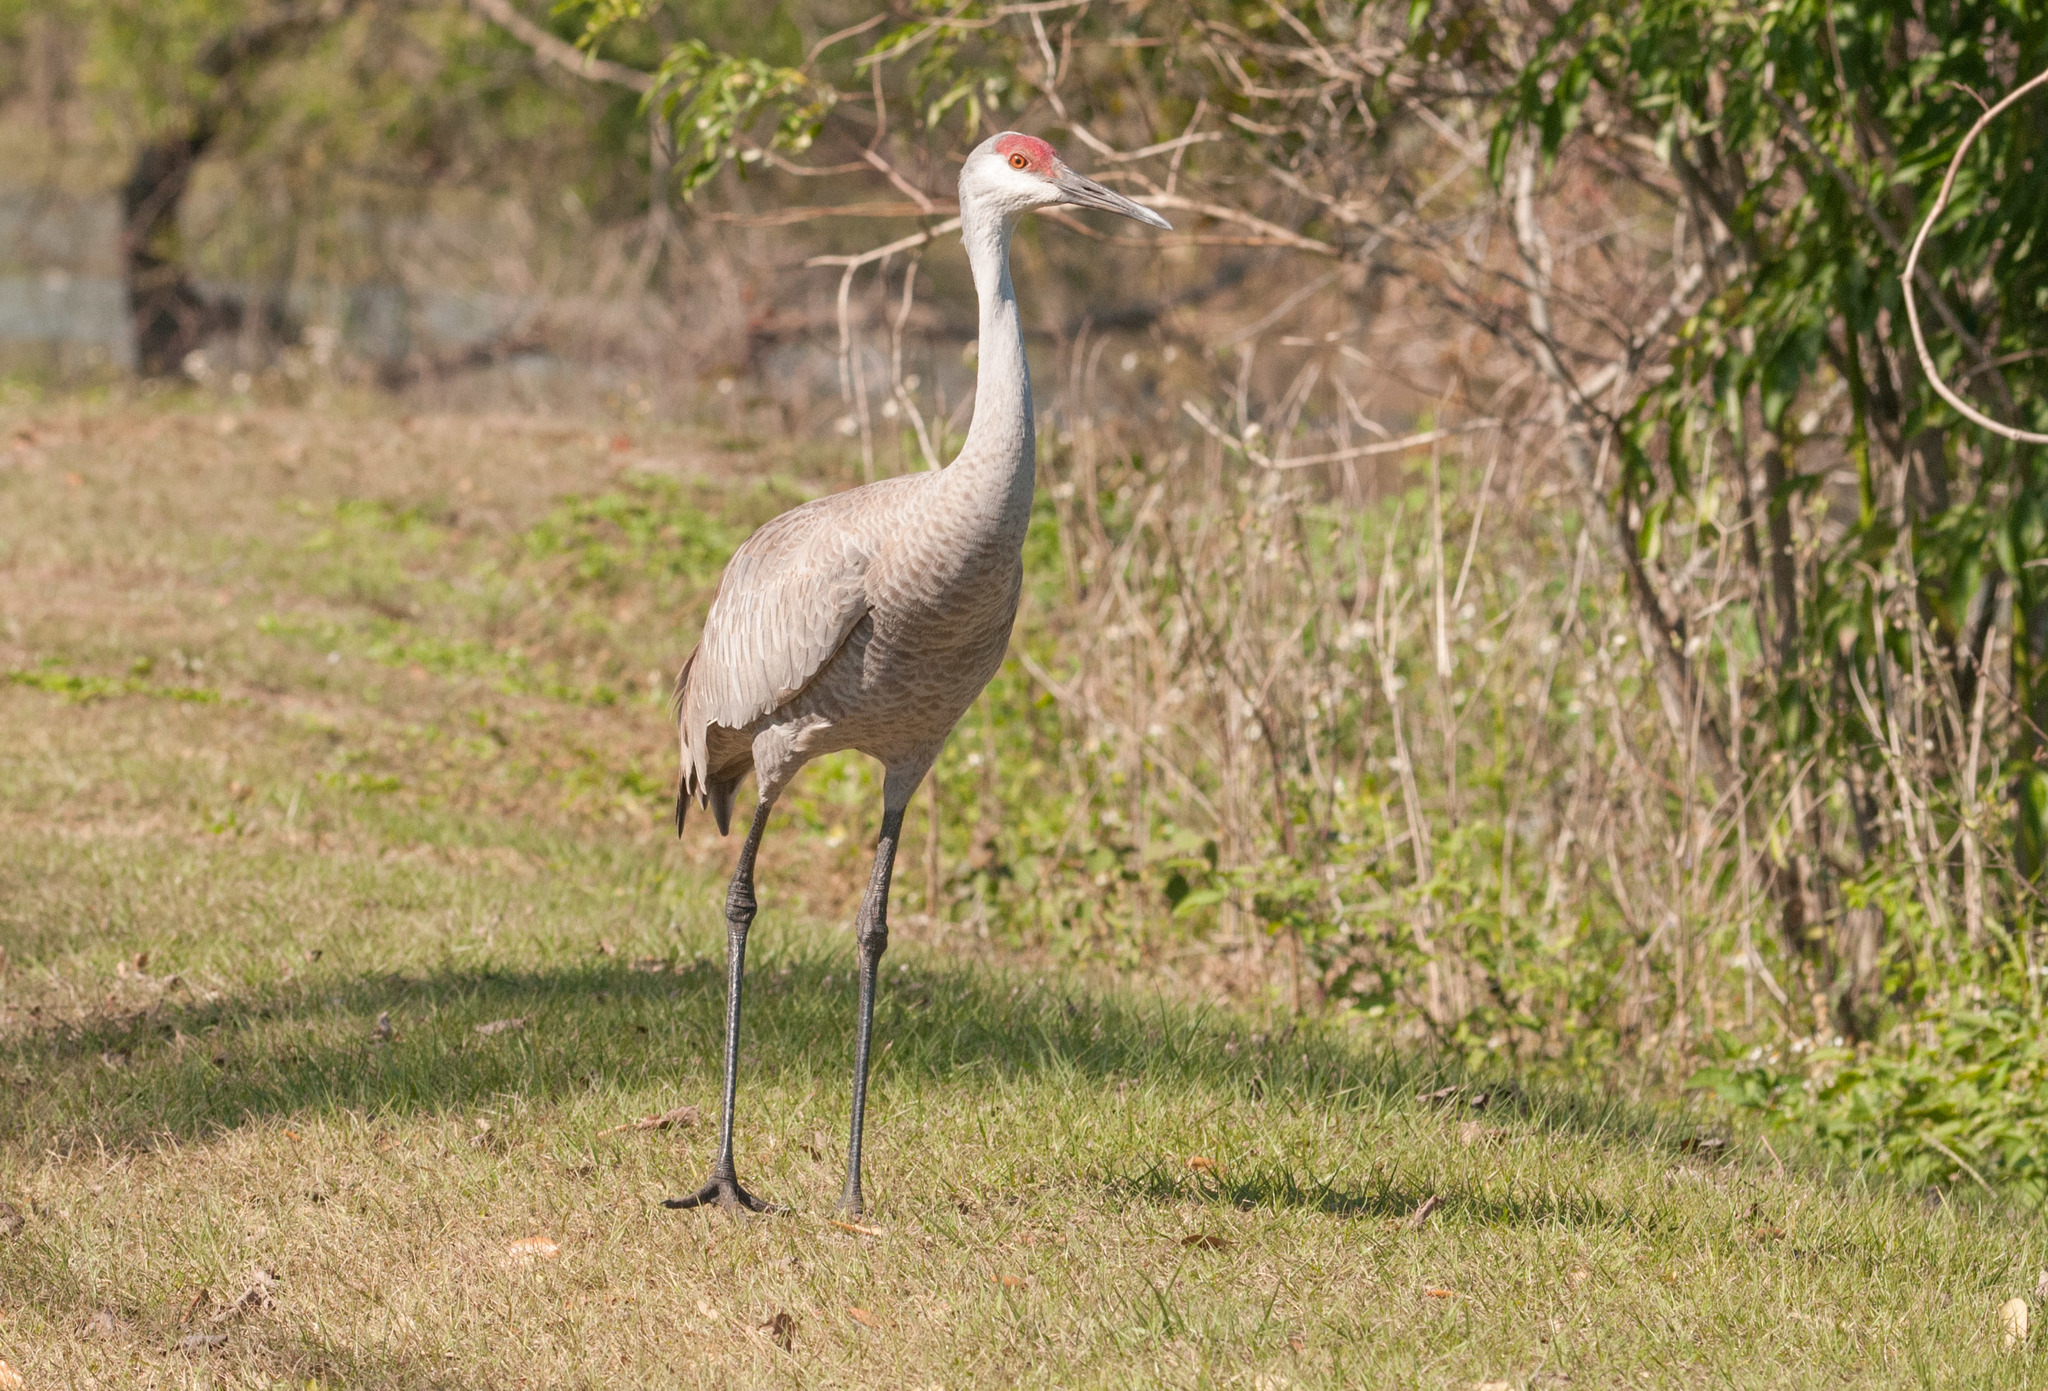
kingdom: Animalia
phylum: Chordata
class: Aves
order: Gruiformes
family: Gruidae
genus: Grus
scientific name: Grus canadensis
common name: Sandhill crane
